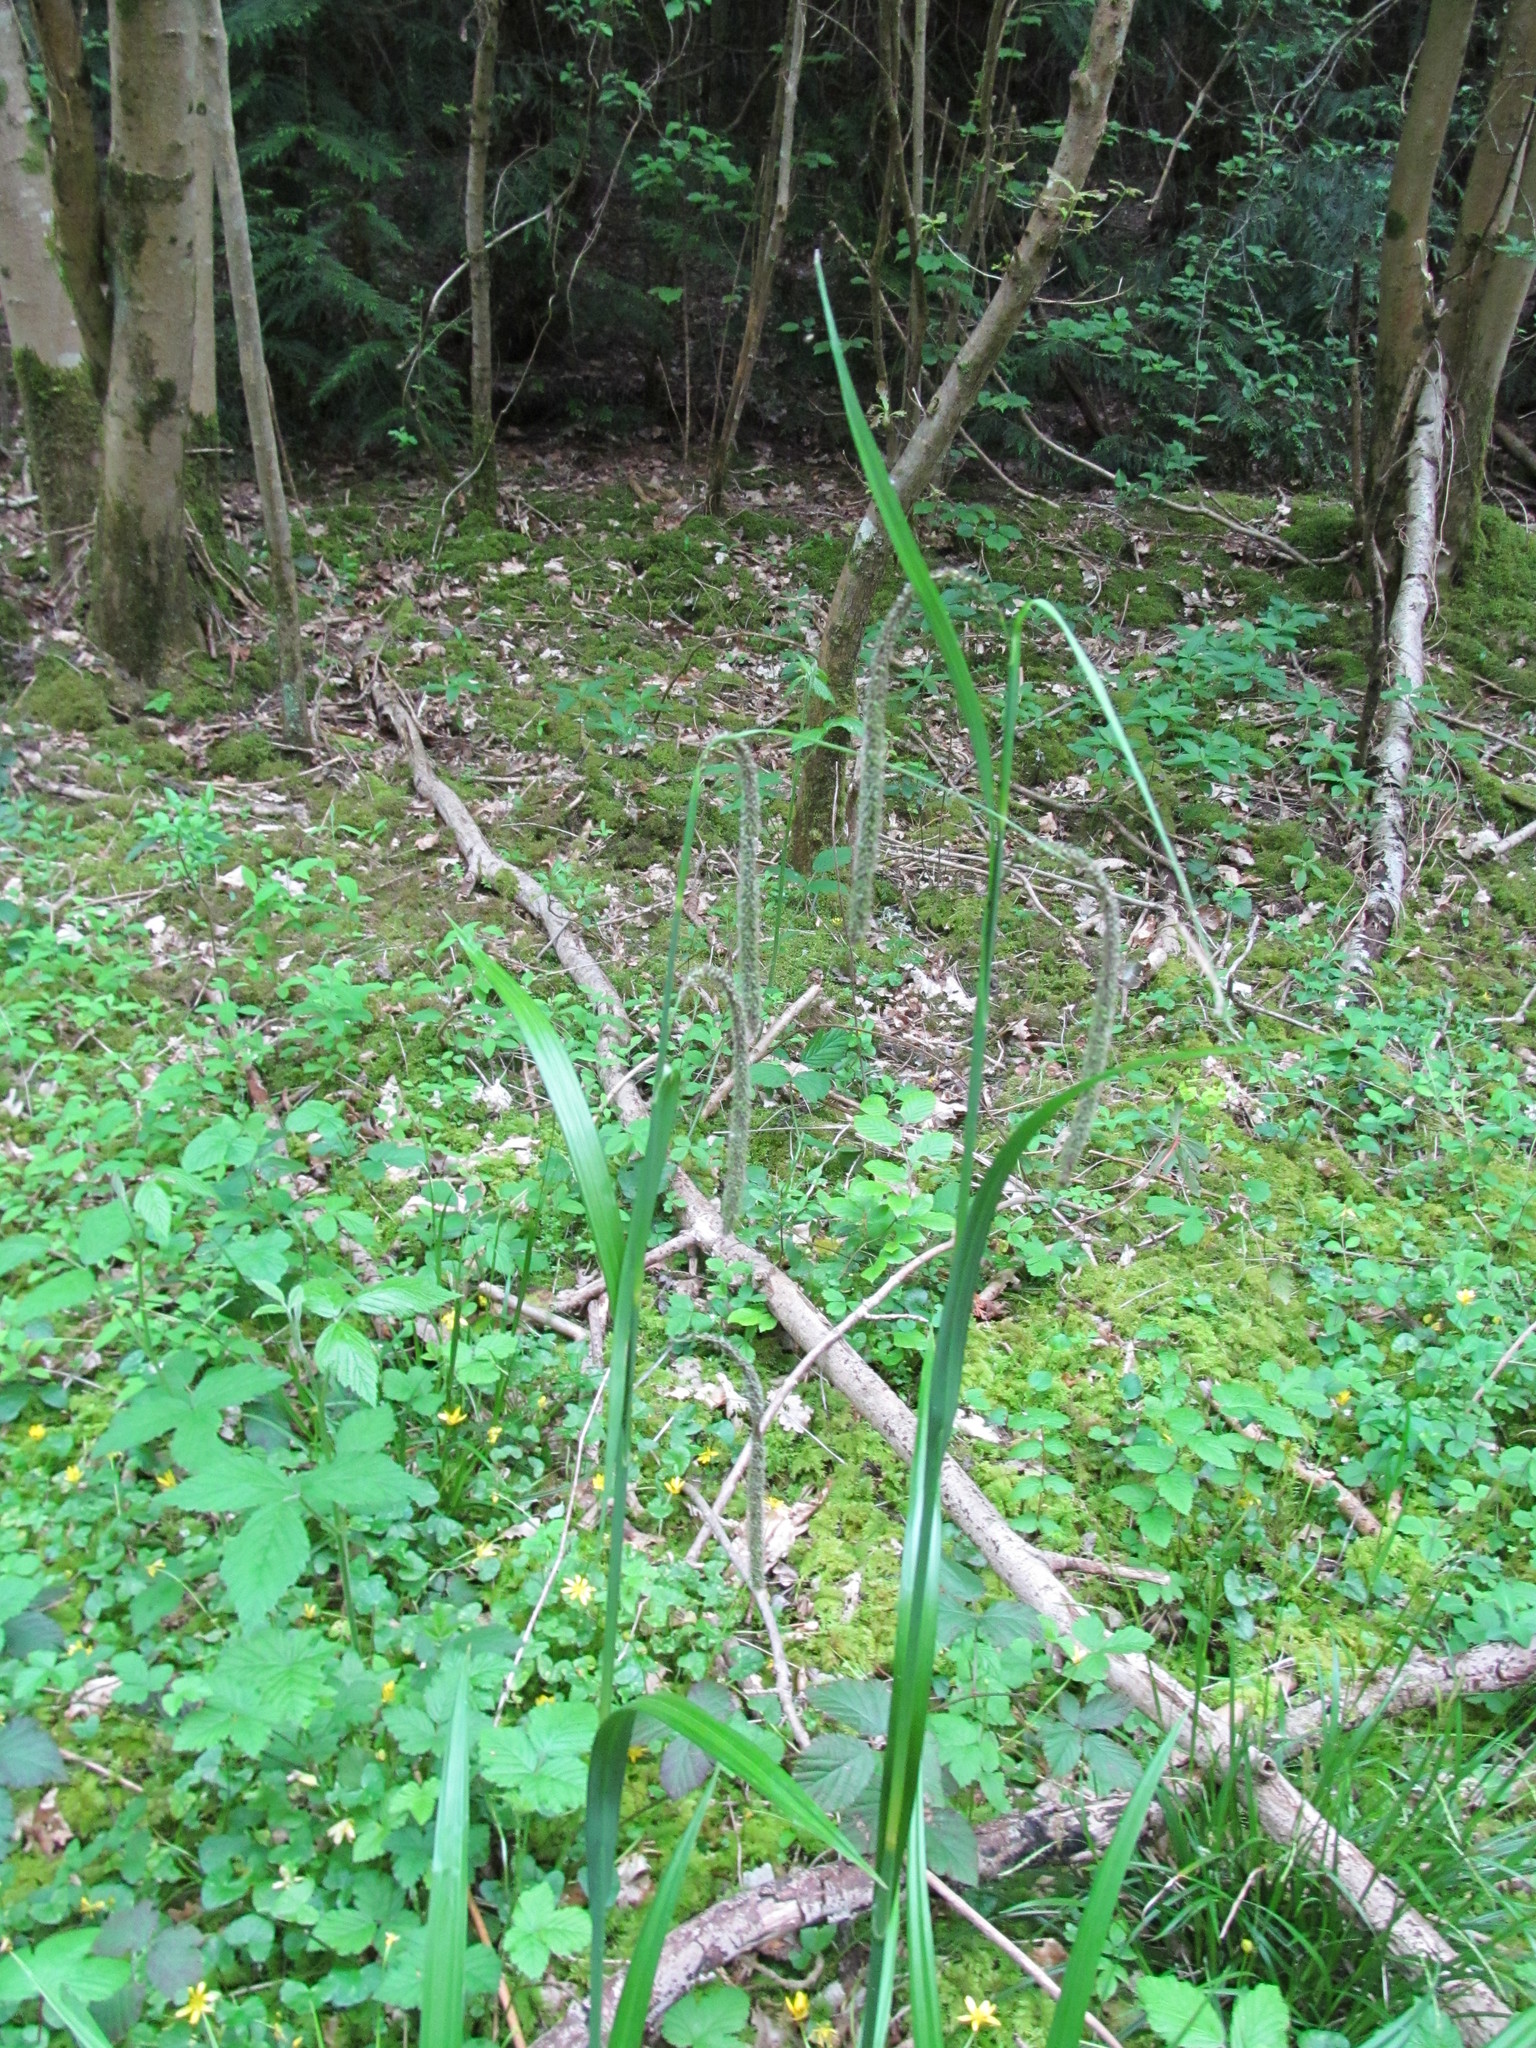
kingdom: Plantae
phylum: Tracheophyta
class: Liliopsida
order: Poales
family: Cyperaceae
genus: Carex
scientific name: Carex pendula
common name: Pendulous sedge
